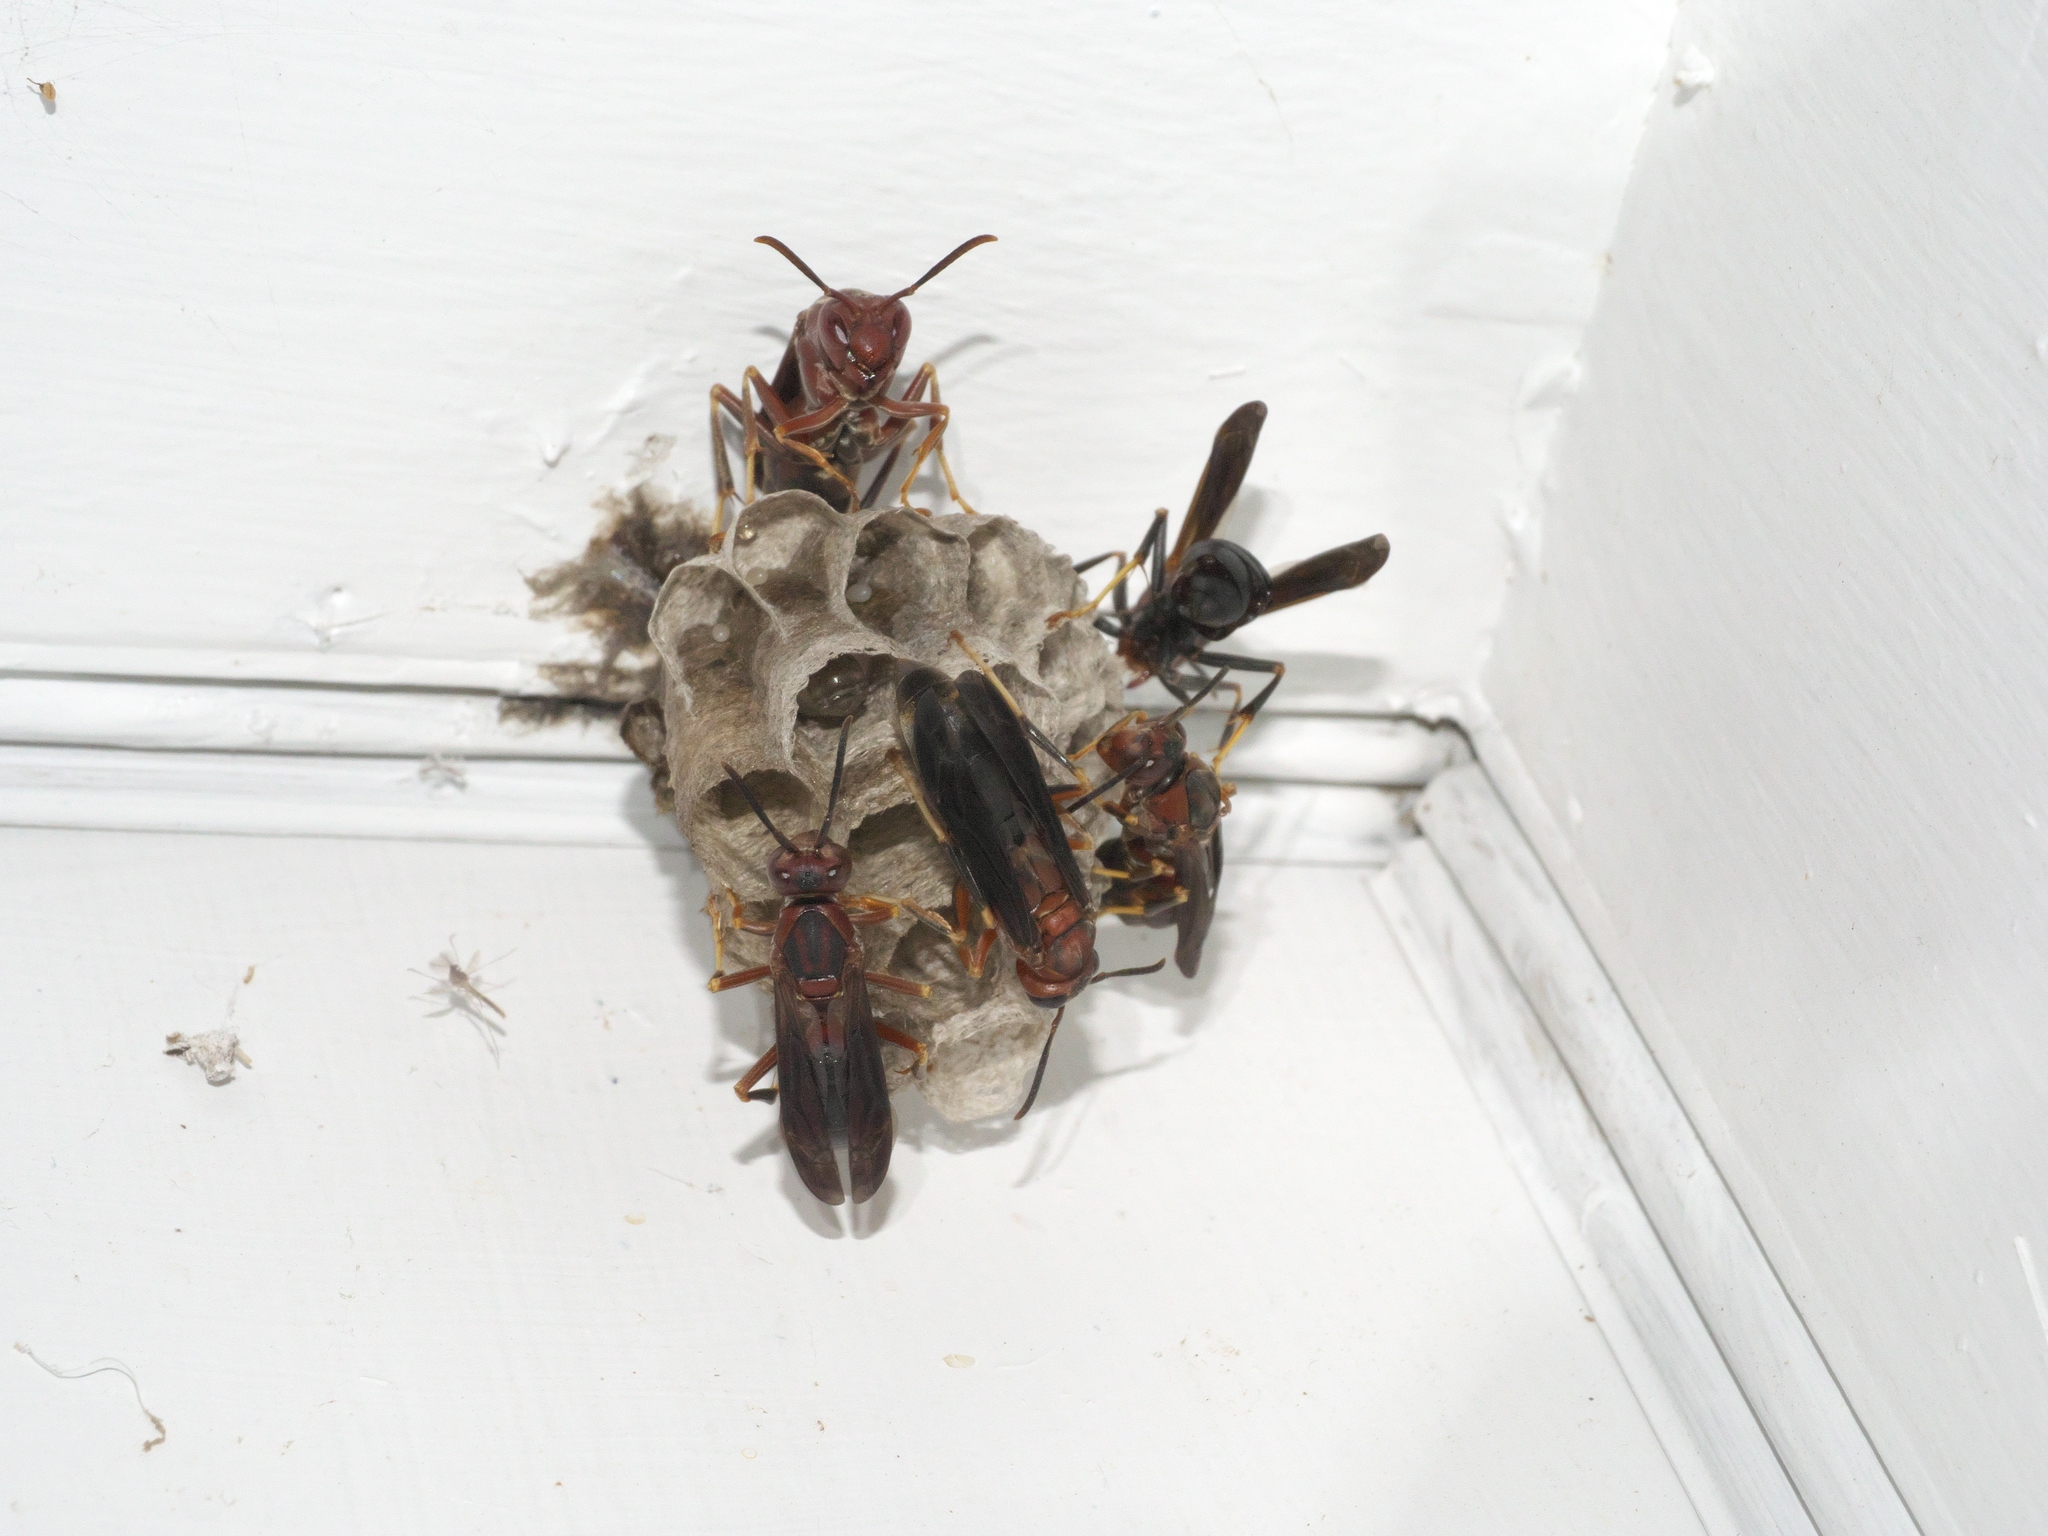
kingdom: Animalia
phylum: Arthropoda
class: Insecta
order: Hymenoptera
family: Eumenidae
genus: Polistes
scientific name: Polistes metricus
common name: Metric paper wasp
